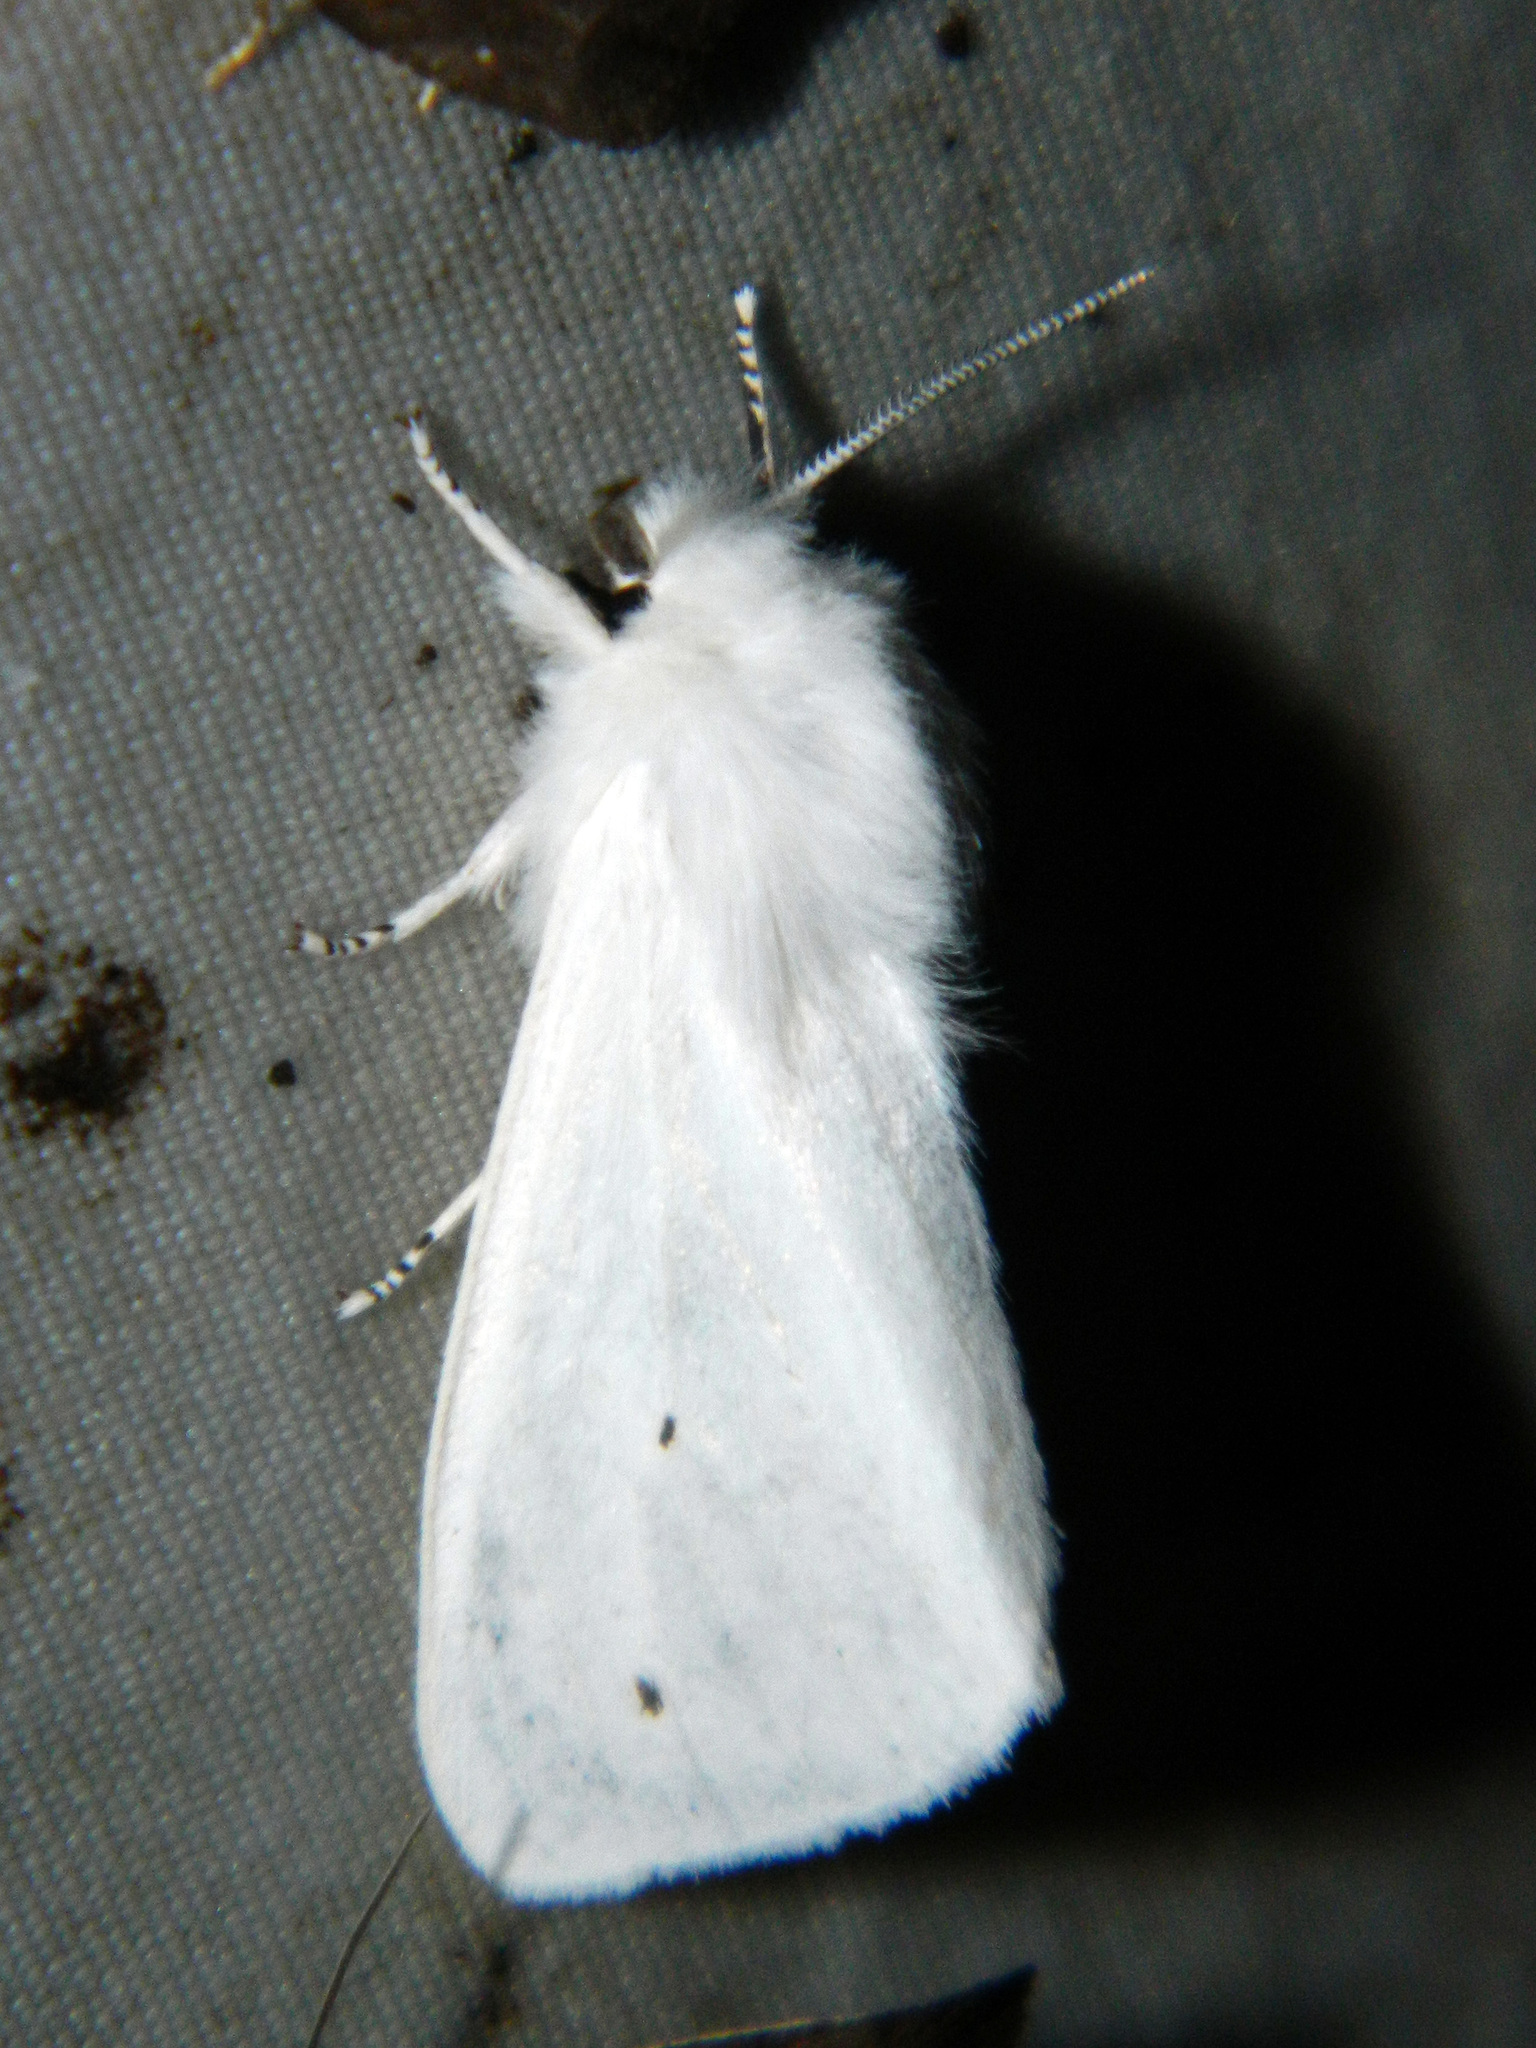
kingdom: Animalia
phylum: Arthropoda
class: Insecta
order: Lepidoptera
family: Erebidae
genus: Spilosoma
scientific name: Spilosoma virginica
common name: Virginia tiger moth
